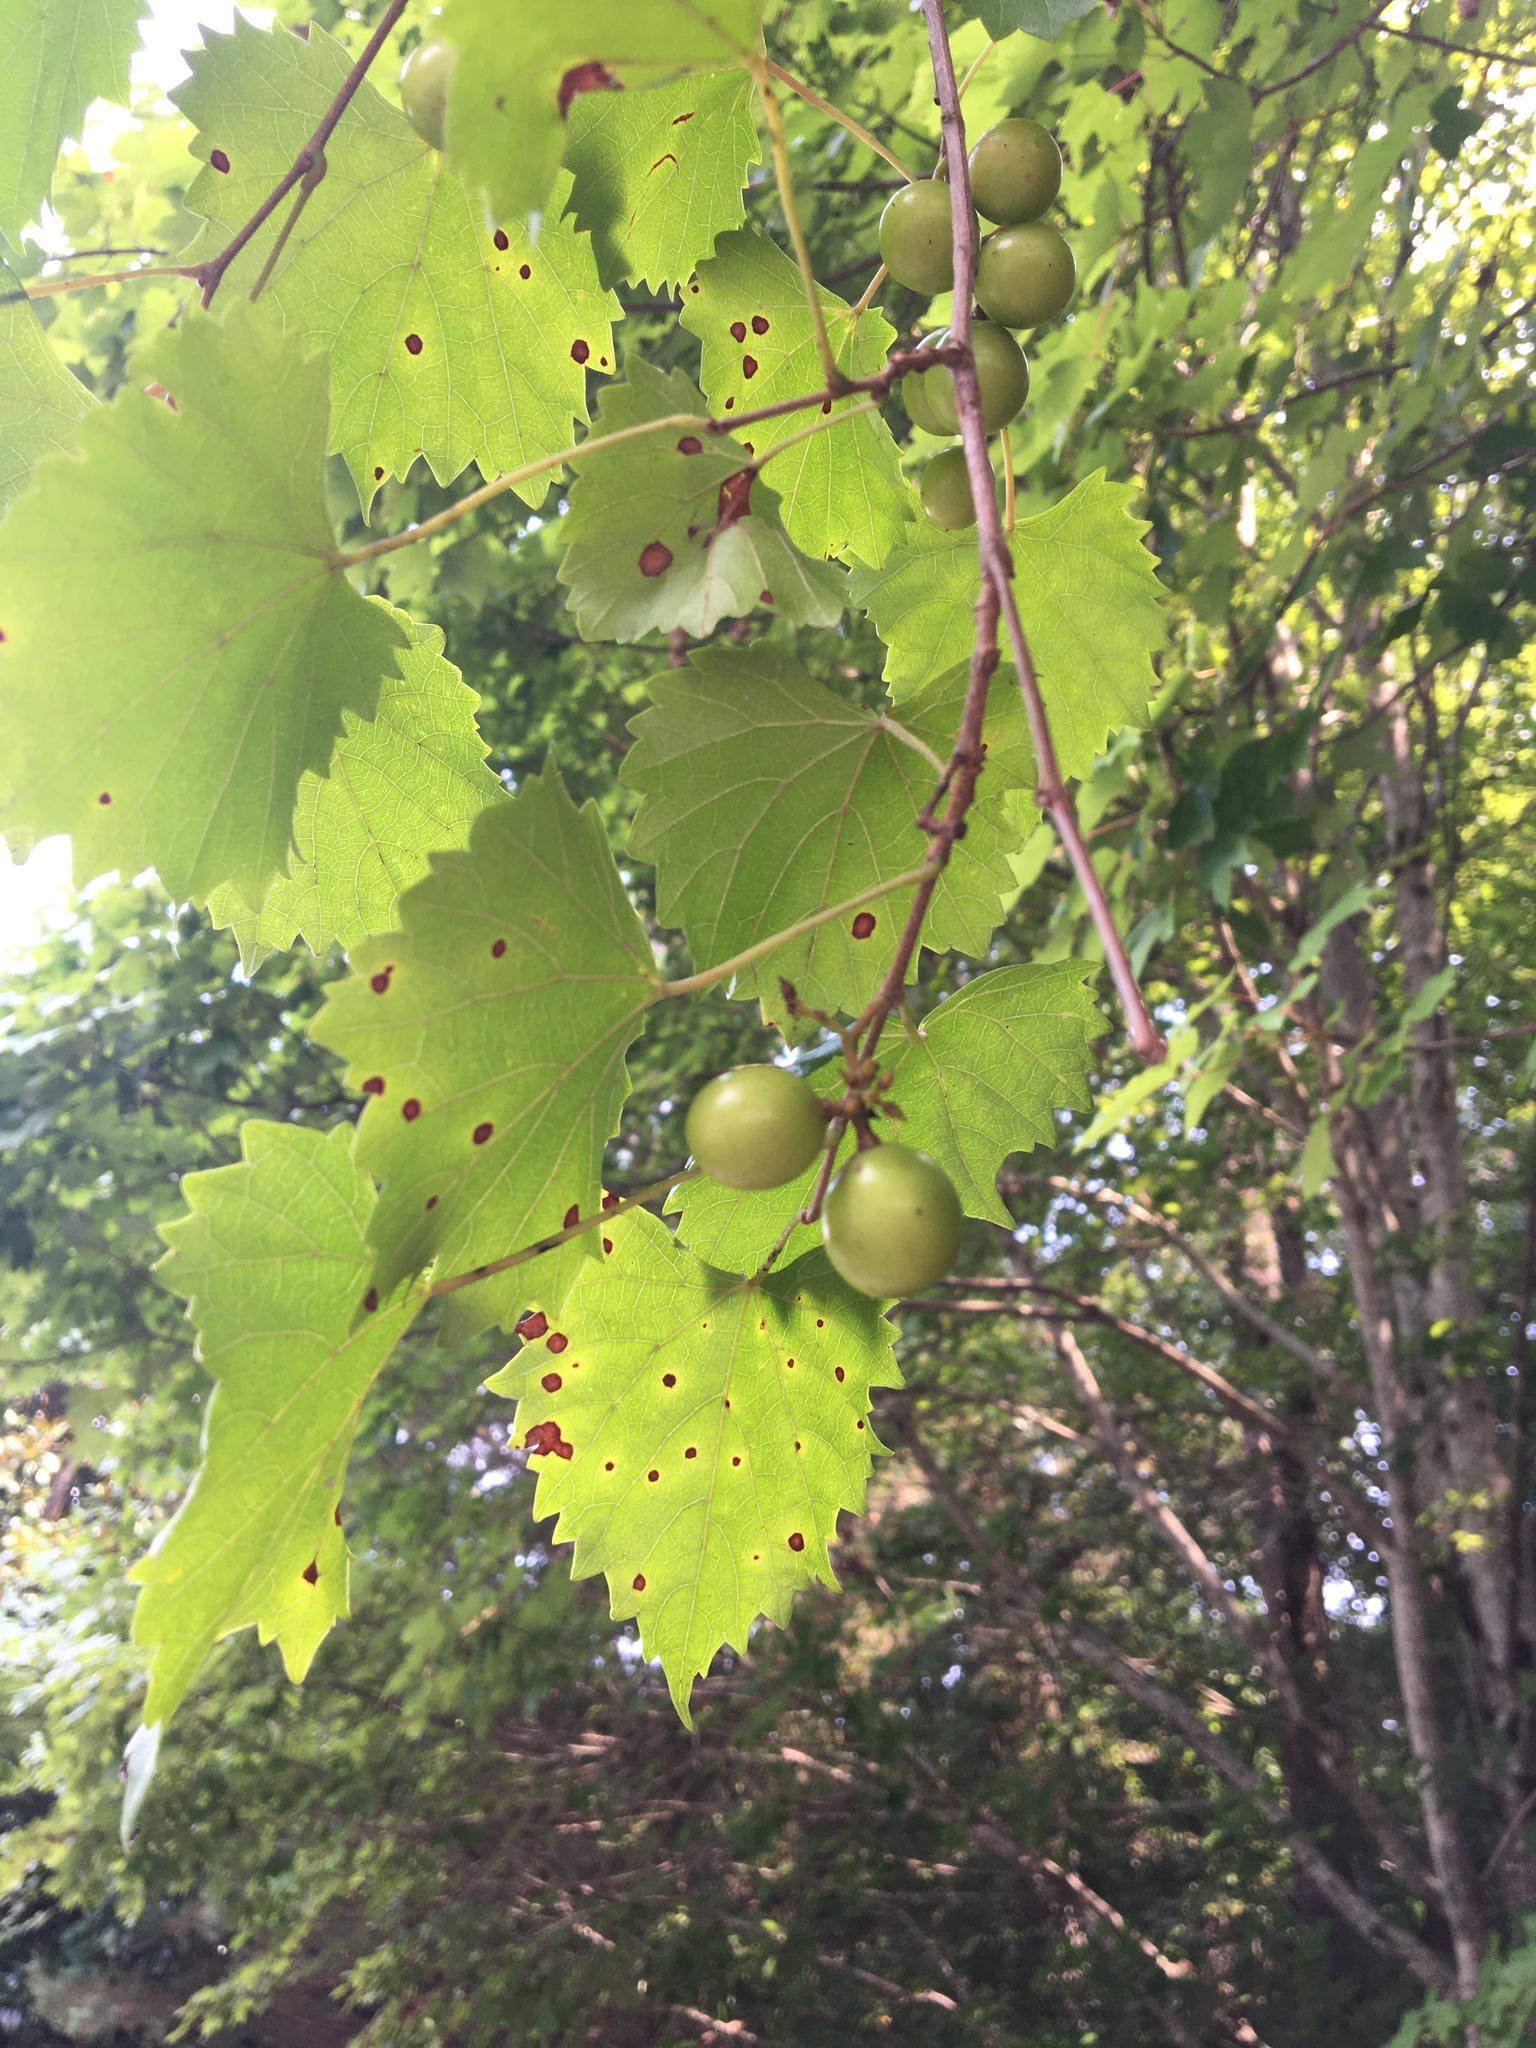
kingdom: Plantae
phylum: Tracheophyta
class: Magnoliopsida
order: Vitales
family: Vitaceae
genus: Vitis
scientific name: Vitis rotundifolia
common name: Muscadine grape
